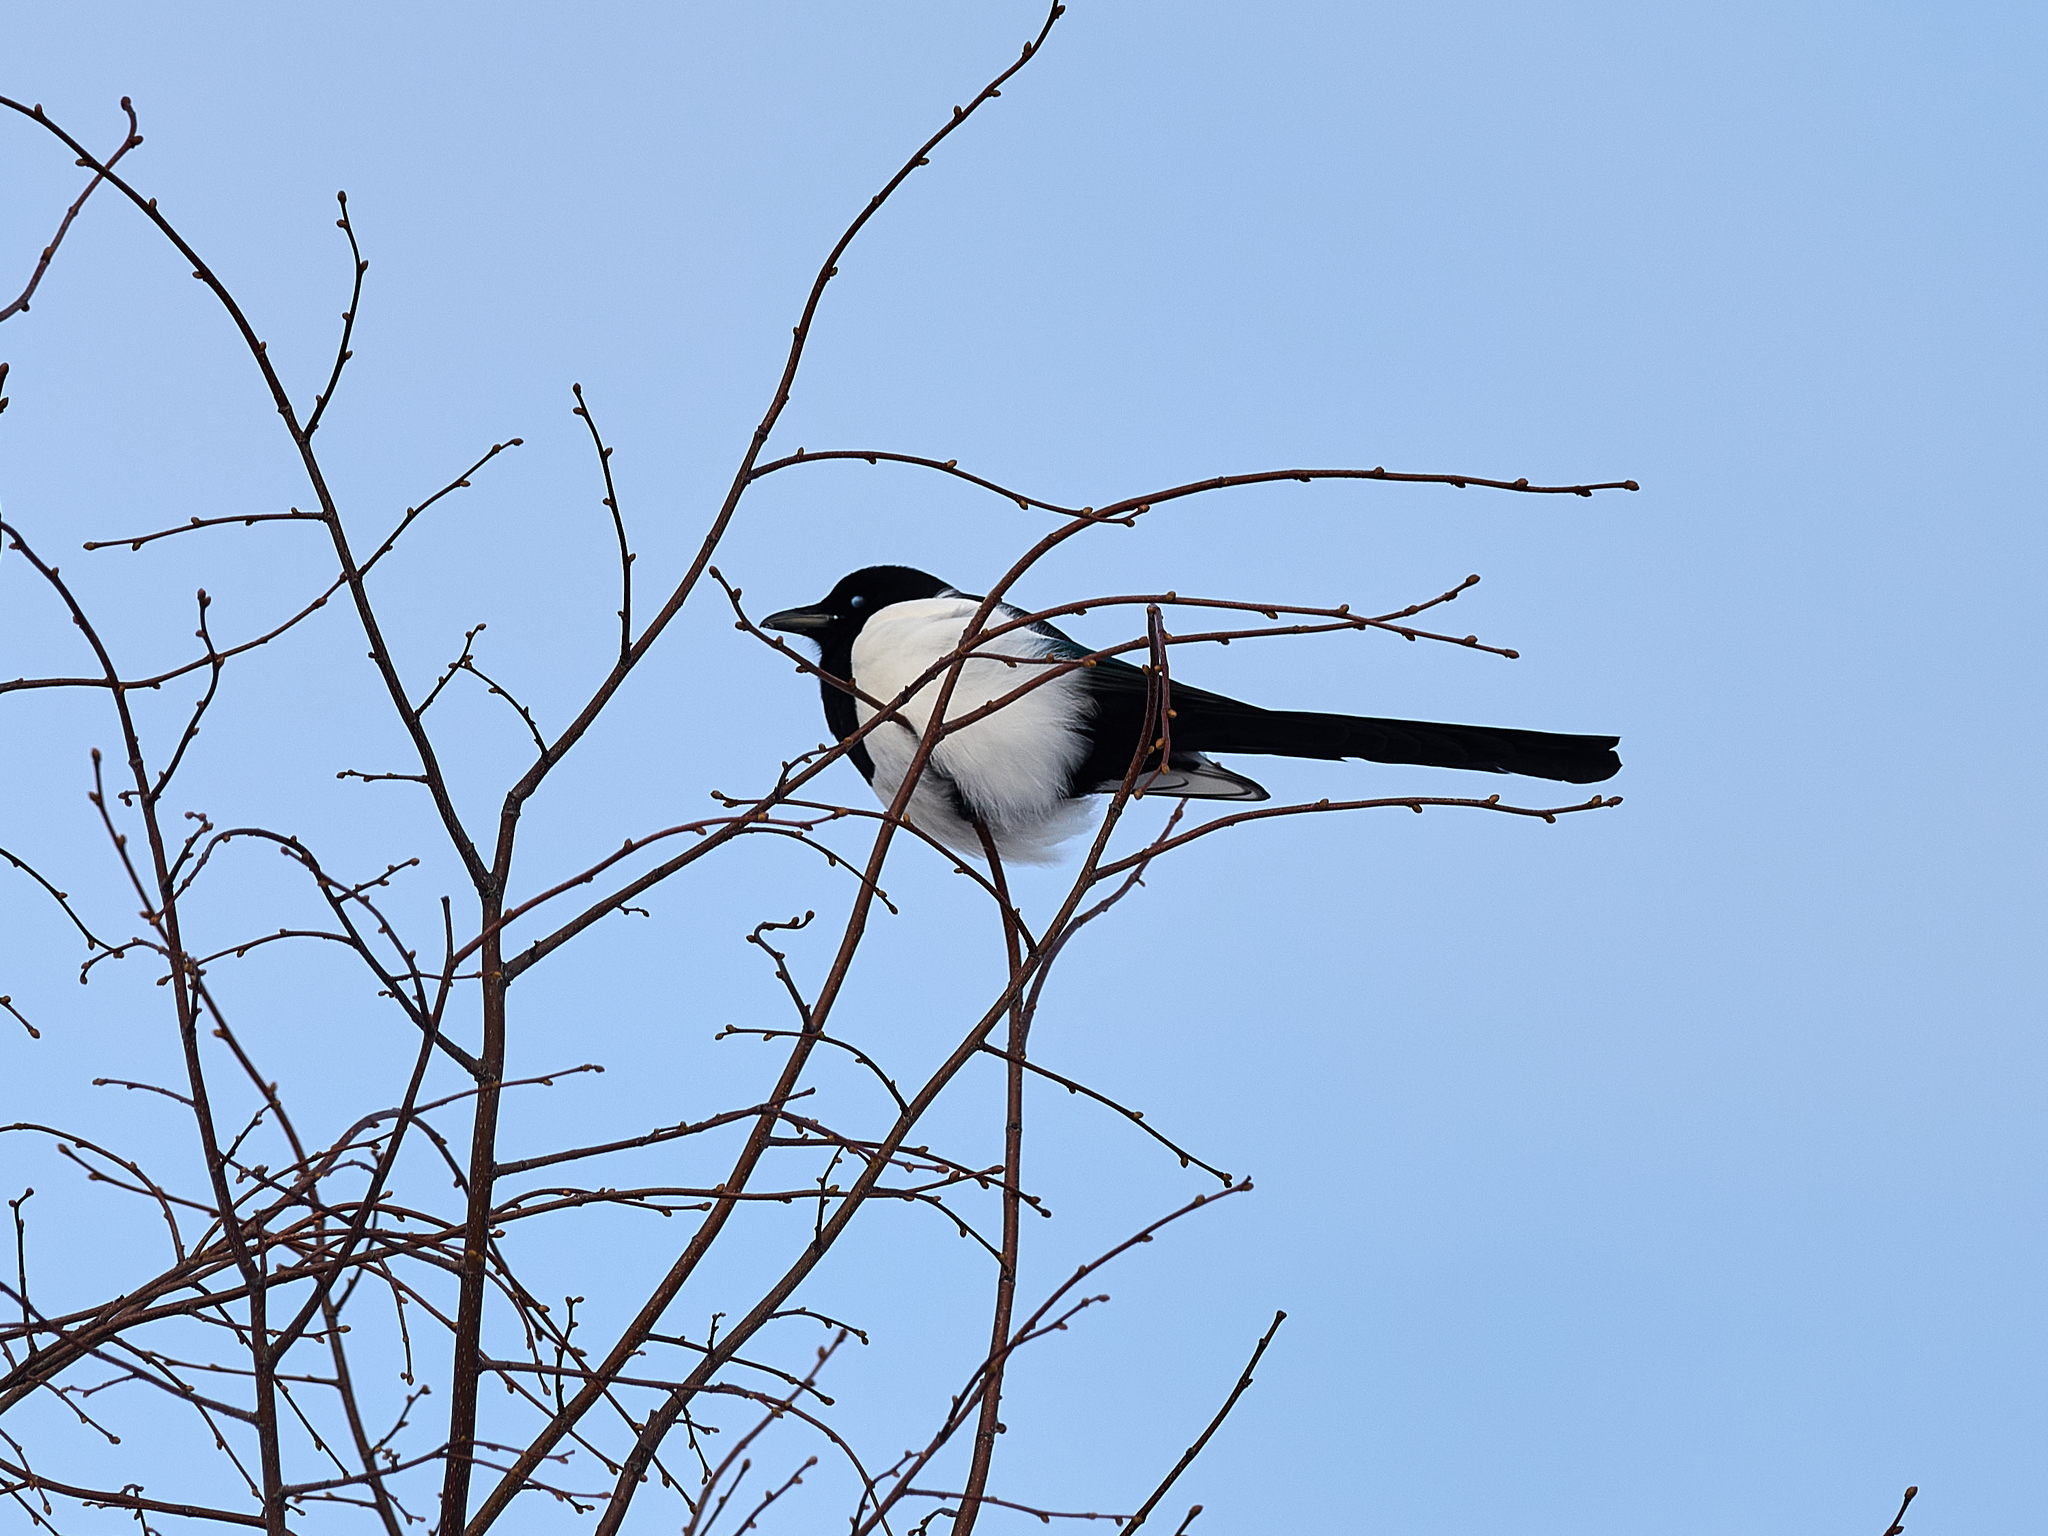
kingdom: Animalia
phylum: Chordata
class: Aves
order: Passeriformes
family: Corvidae
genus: Pica
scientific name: Pica pica
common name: Eurasian magpie
